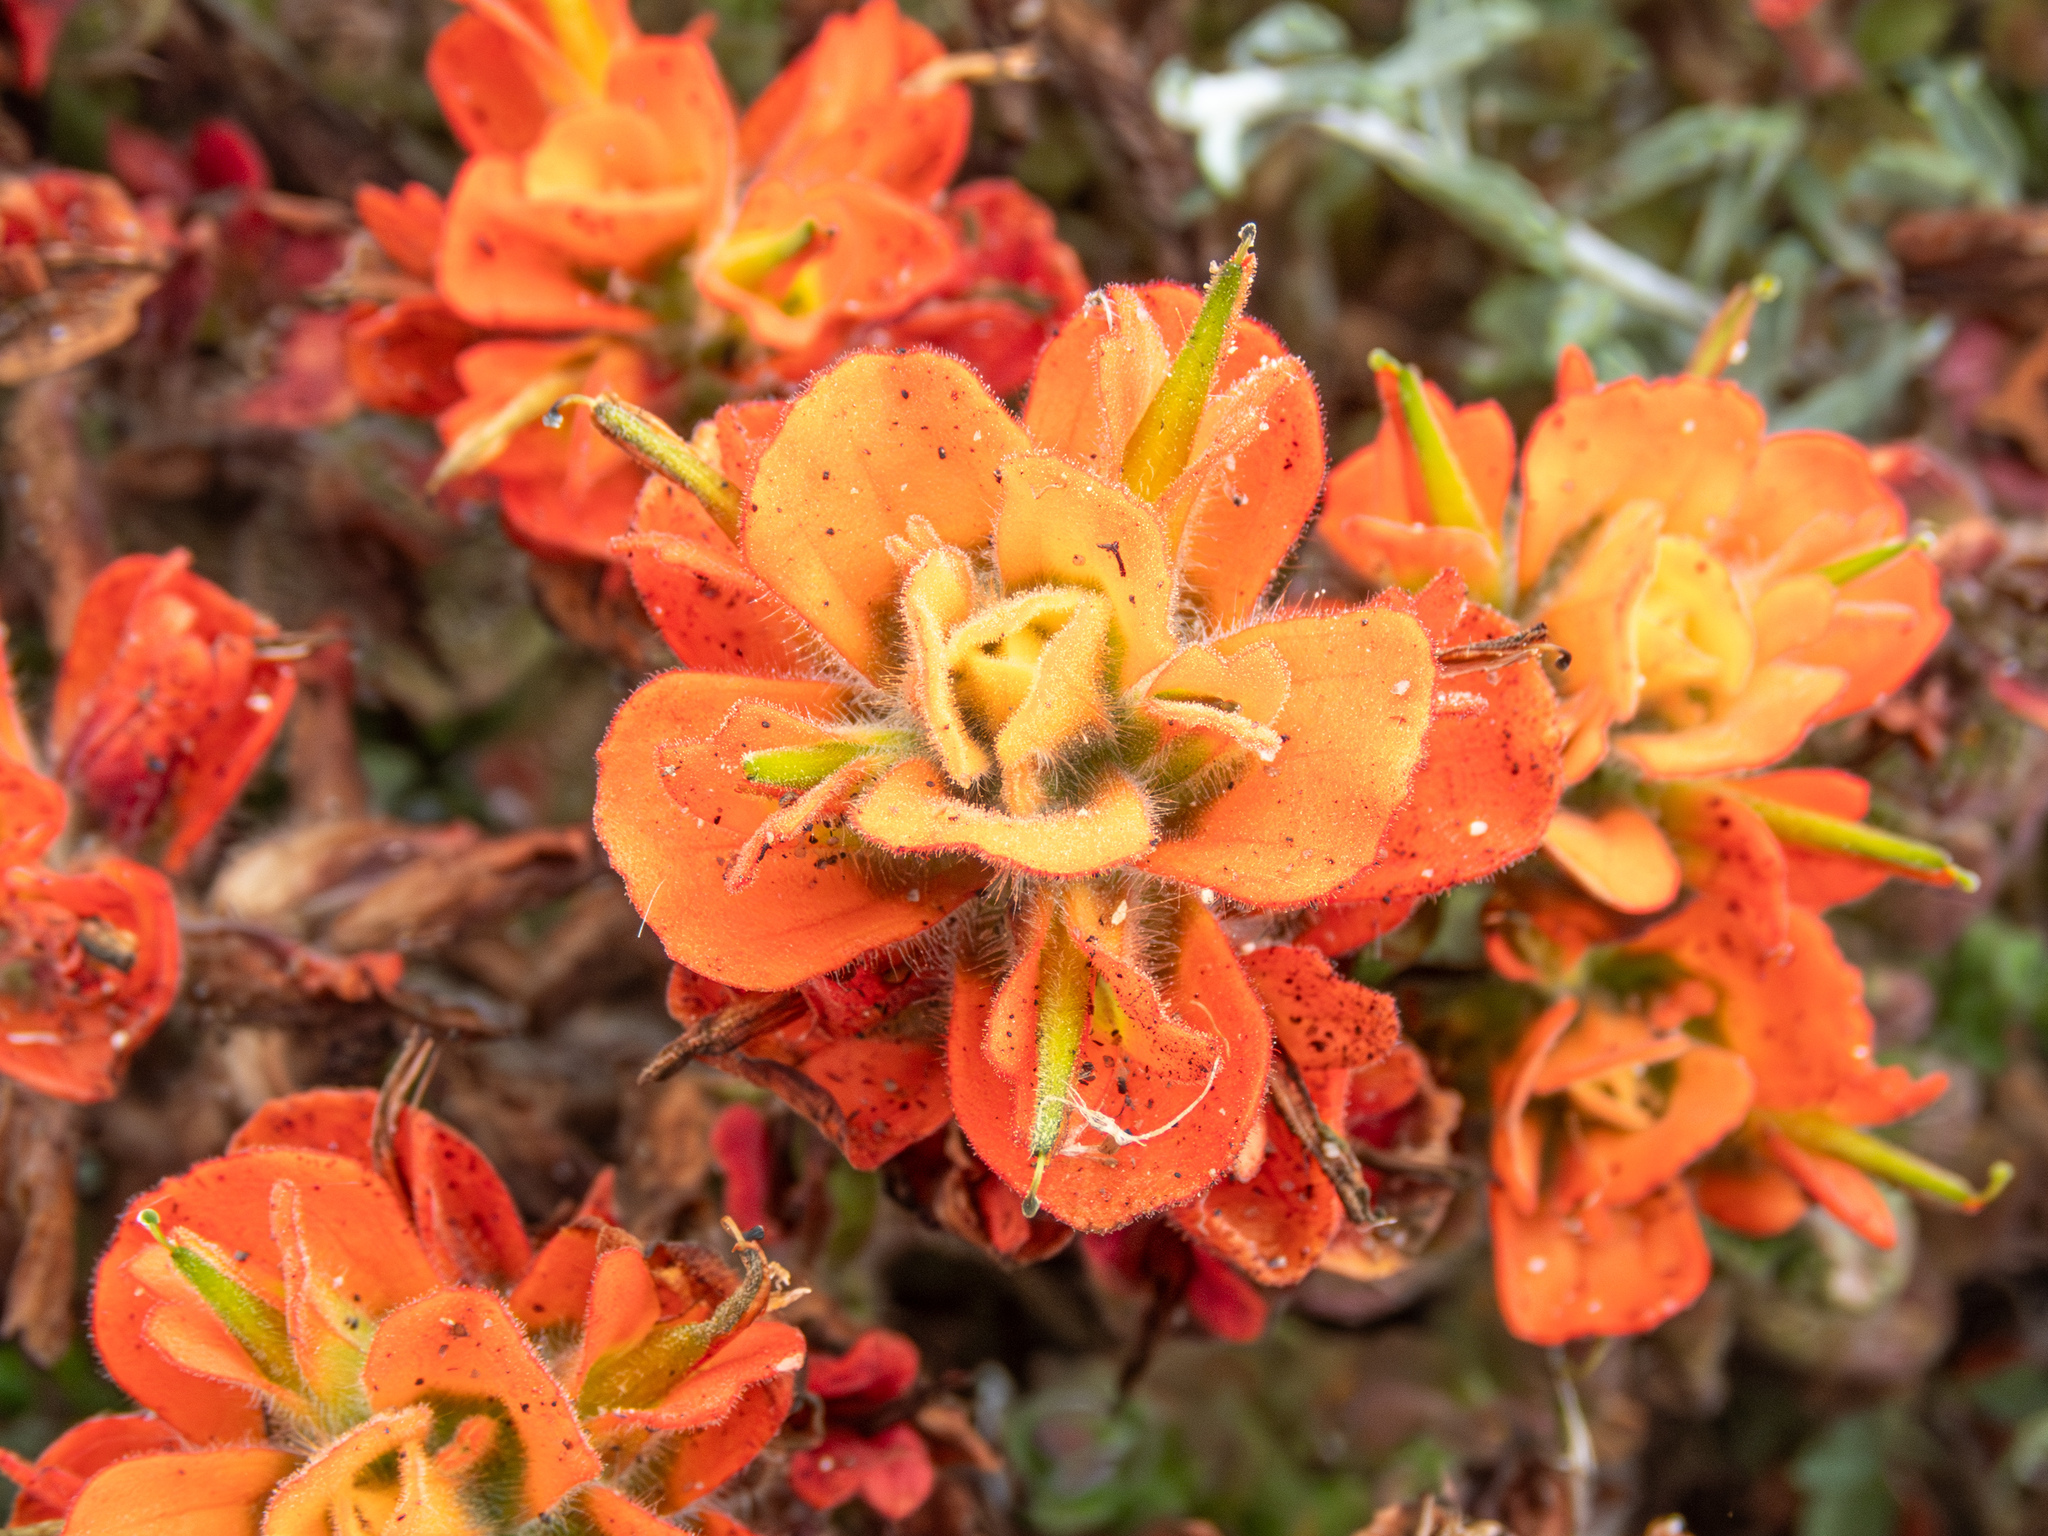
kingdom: Plantae
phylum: Tracheophyta
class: Magnoliopsida
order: Lamiales
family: Orobanchaceae
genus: Castilleja
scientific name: Castilleja latifolia
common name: Monterey indian paintbrush
